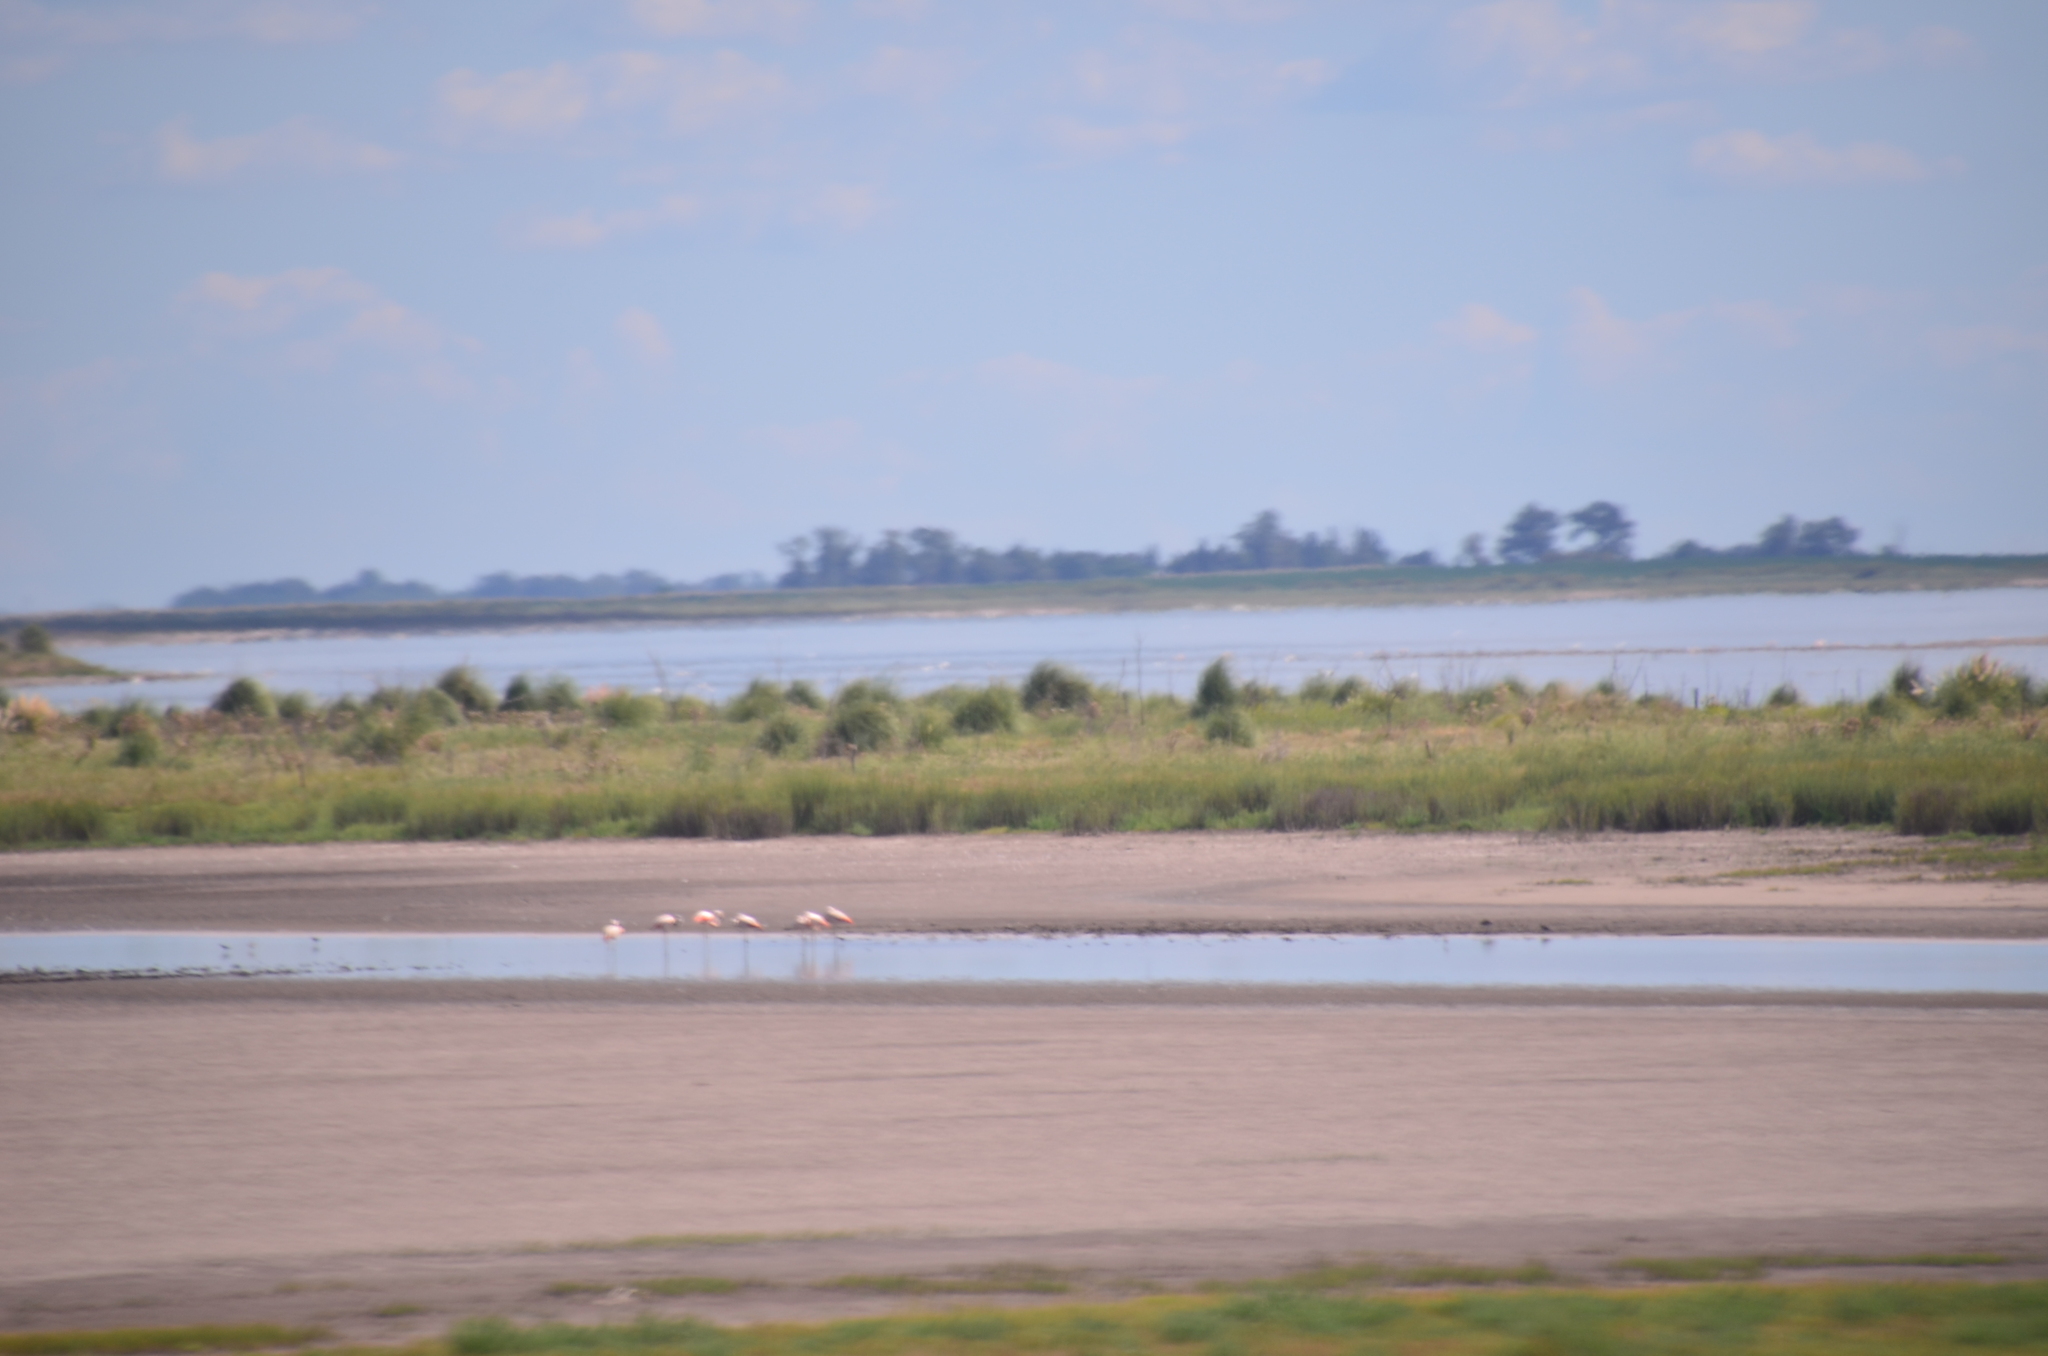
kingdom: Animalia
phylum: Chordata
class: Aves
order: Phoenicopteriformes
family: Phoenicopteridae
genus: Phoenicopterus
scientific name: Phoenicopterus chilensis
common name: Chilean flamingo
